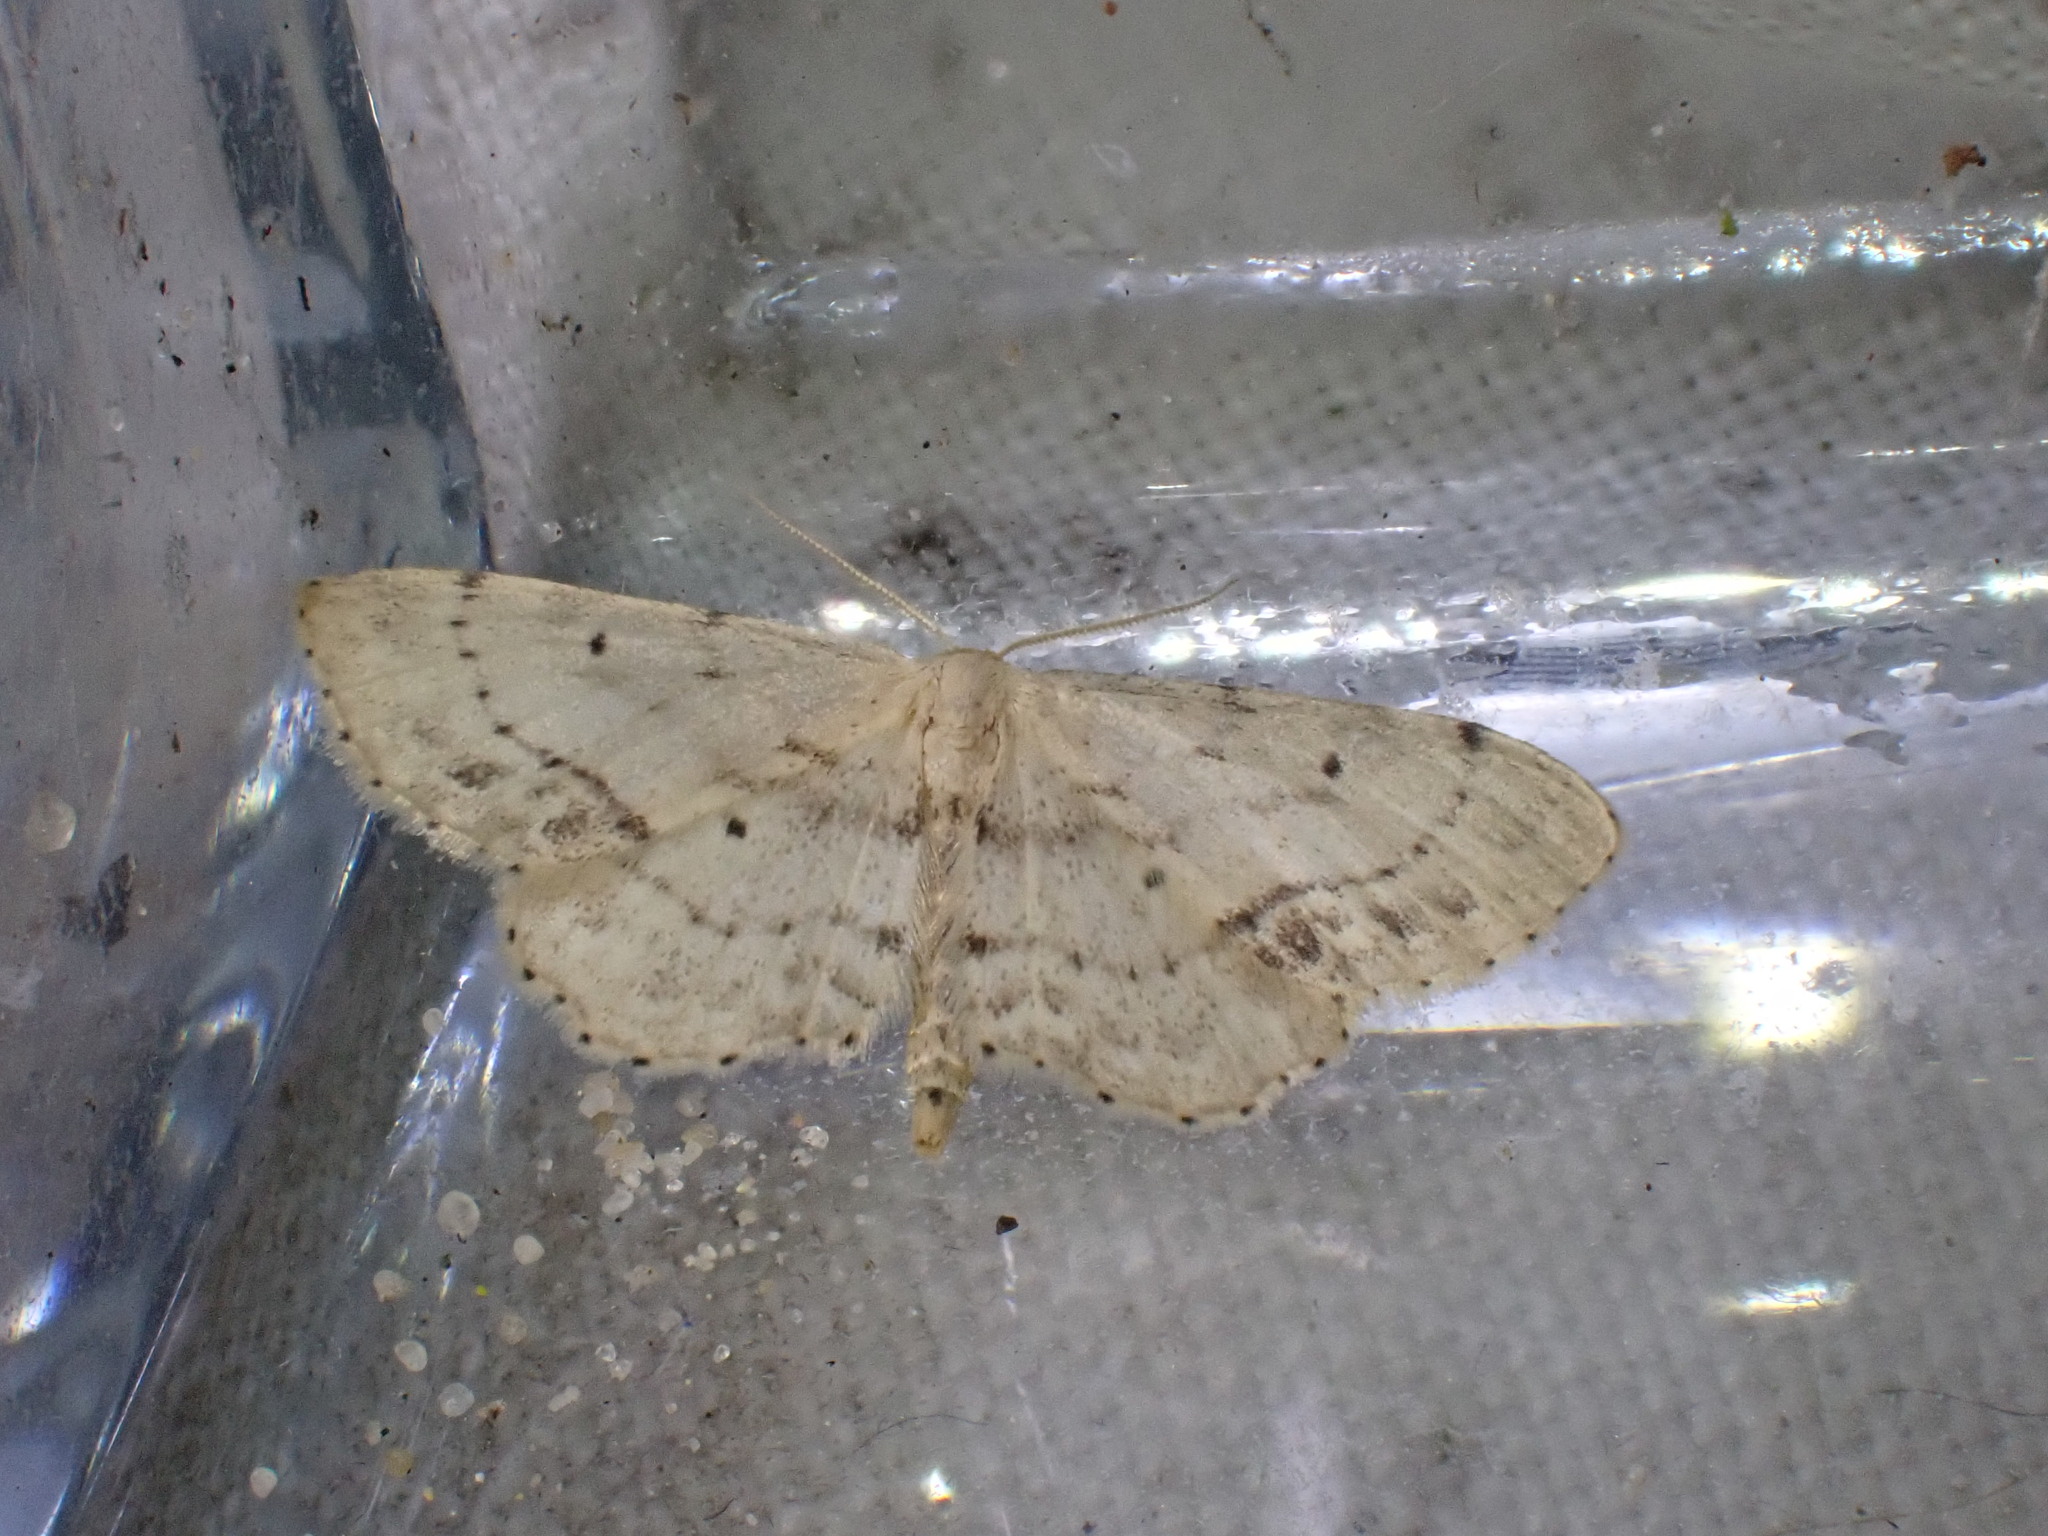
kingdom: Animalia
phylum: Arthropoda
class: Insecta
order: Lepidoptera
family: Geometridae
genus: Idaea
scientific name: Idaea dimidiata
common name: Single-dotted wave
